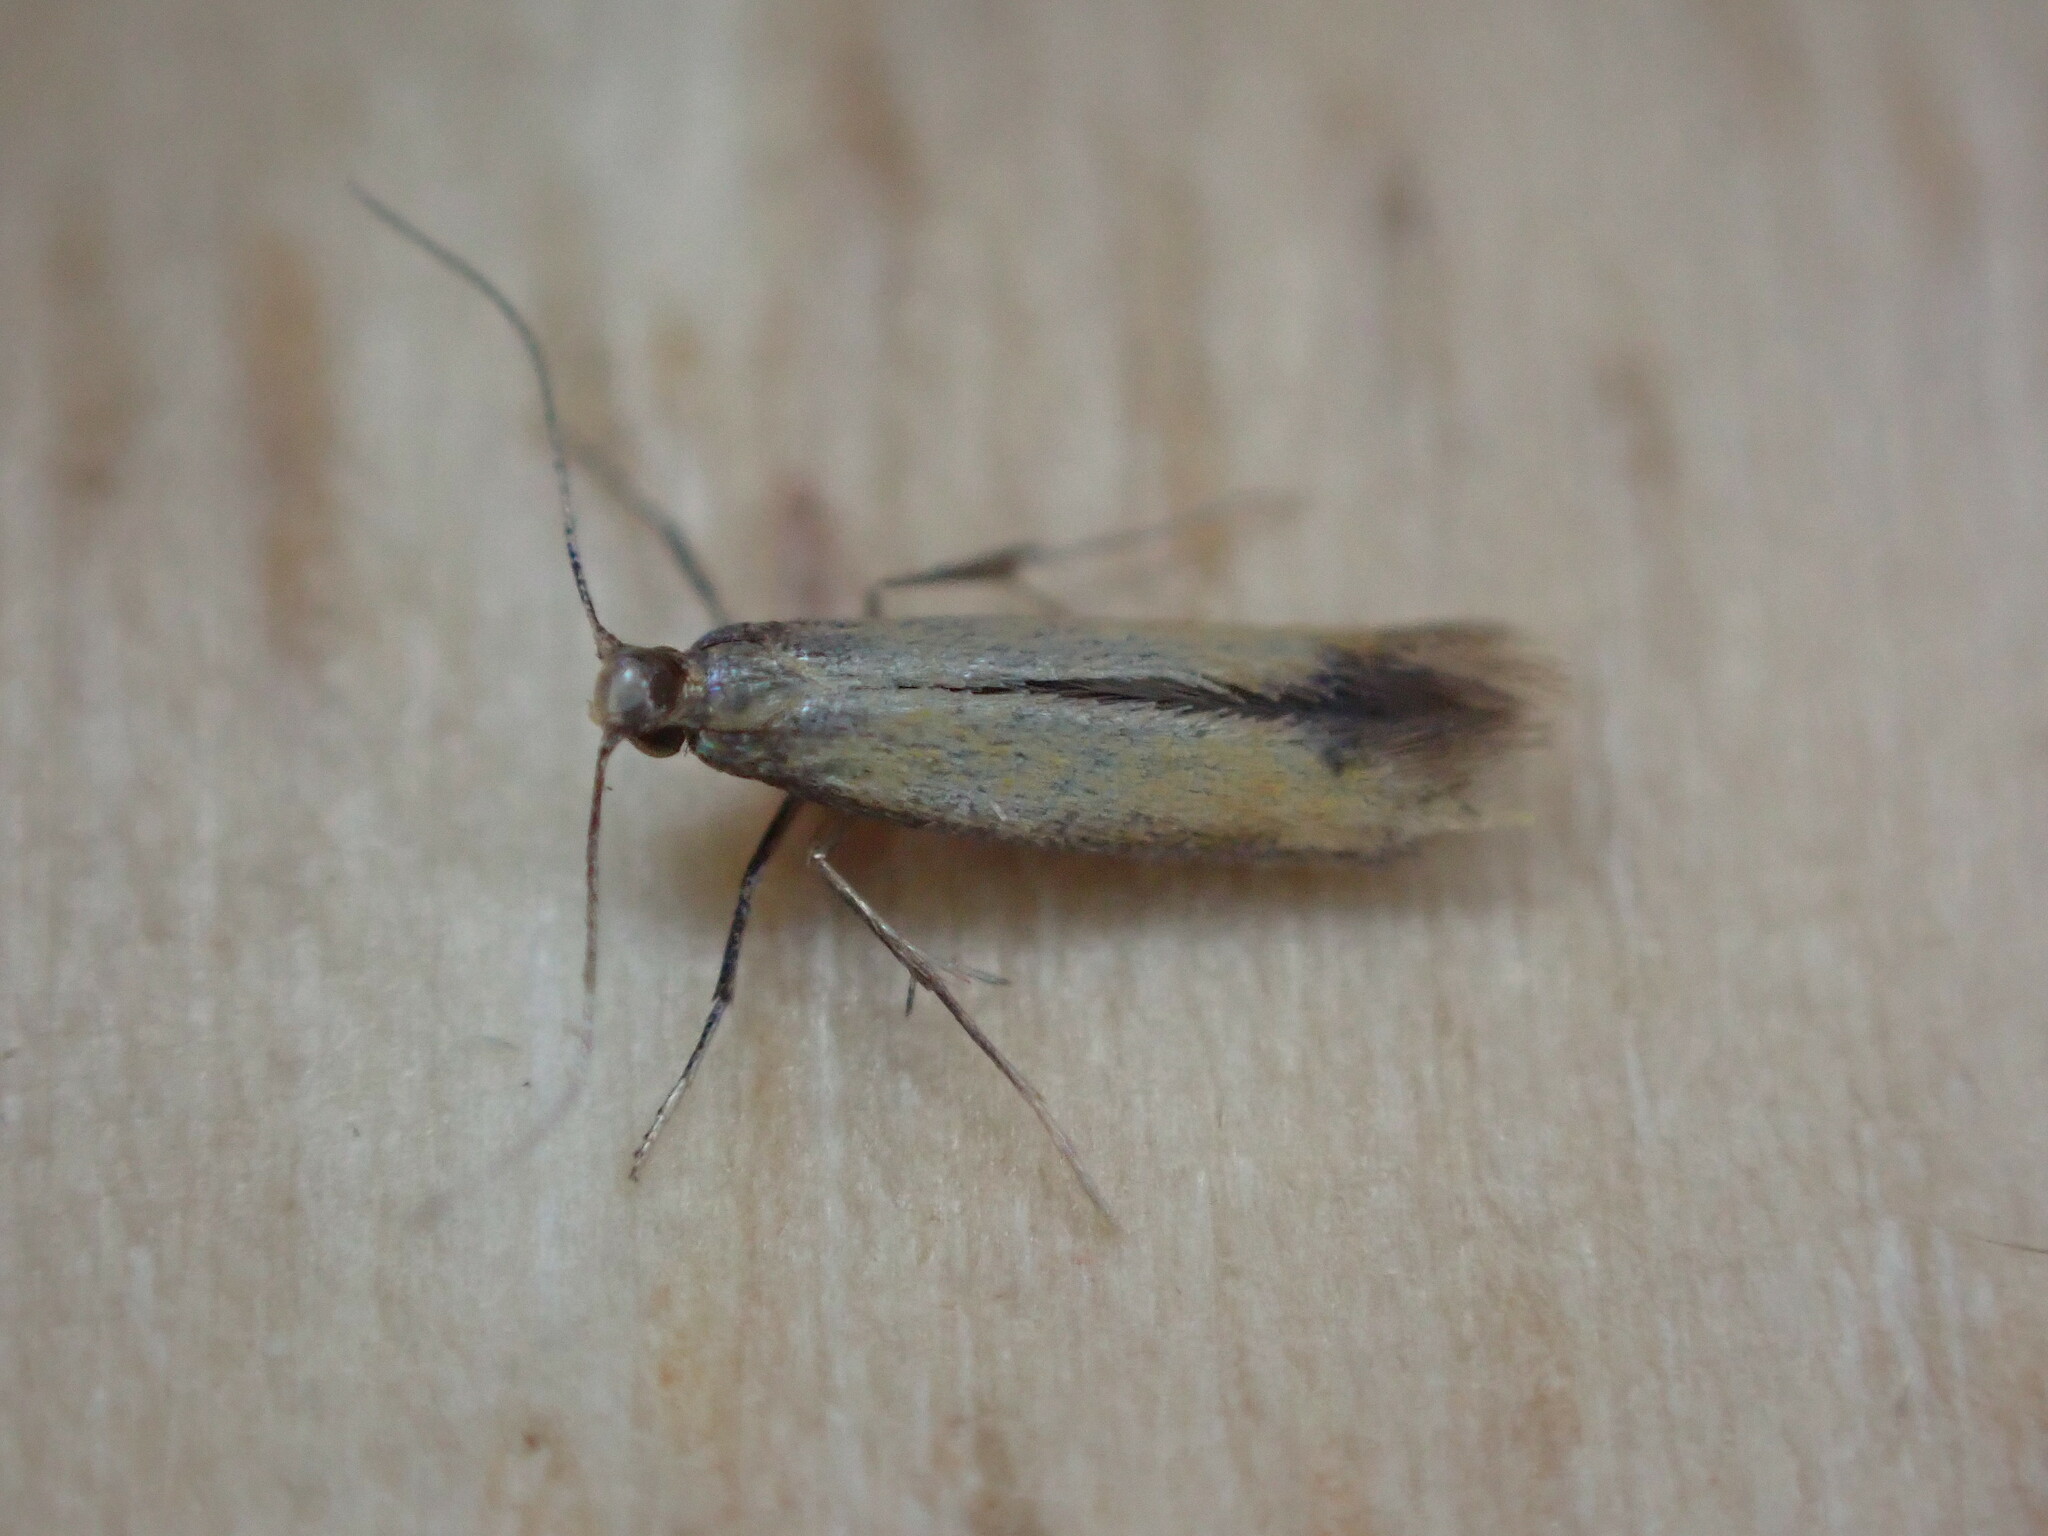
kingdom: Animalia
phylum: Arthropoda
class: Insecta
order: Lepidoptera
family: Tischeriidae
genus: Coptotriche
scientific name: Coptotriche marginea
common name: Bordered carl
